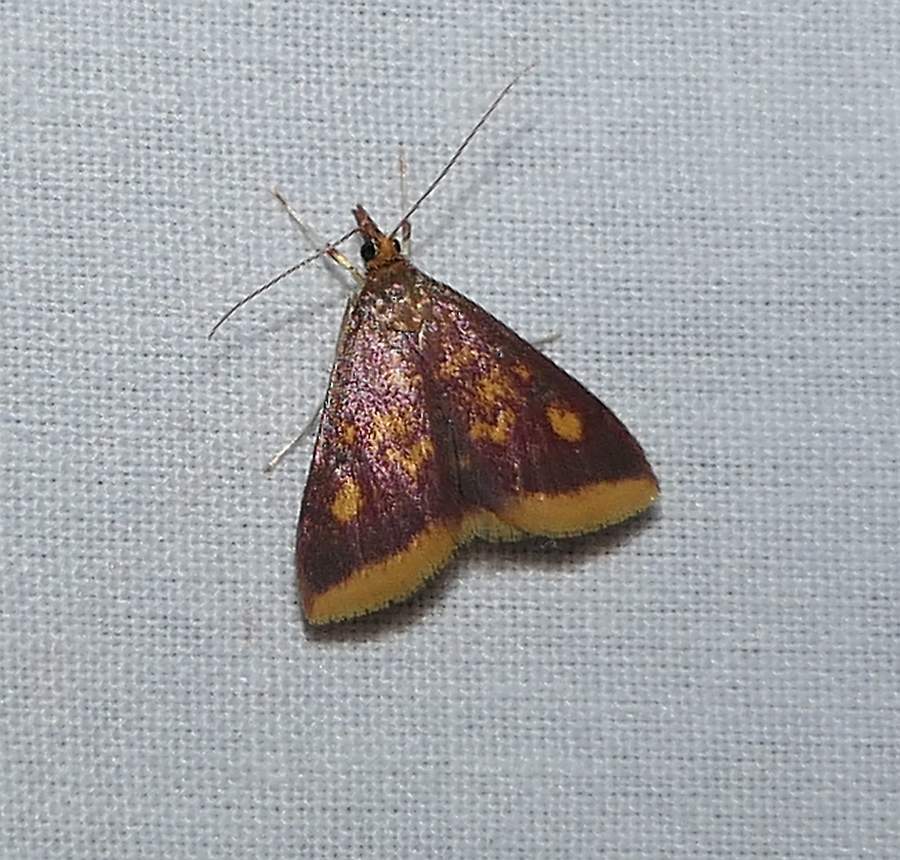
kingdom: Animalia
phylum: Arthropoda
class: Insecta
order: Lepidoptera
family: Crambidae
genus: Pyrausta
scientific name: Pyrausta acrionalis
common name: Mint-loving pyrausta moth
